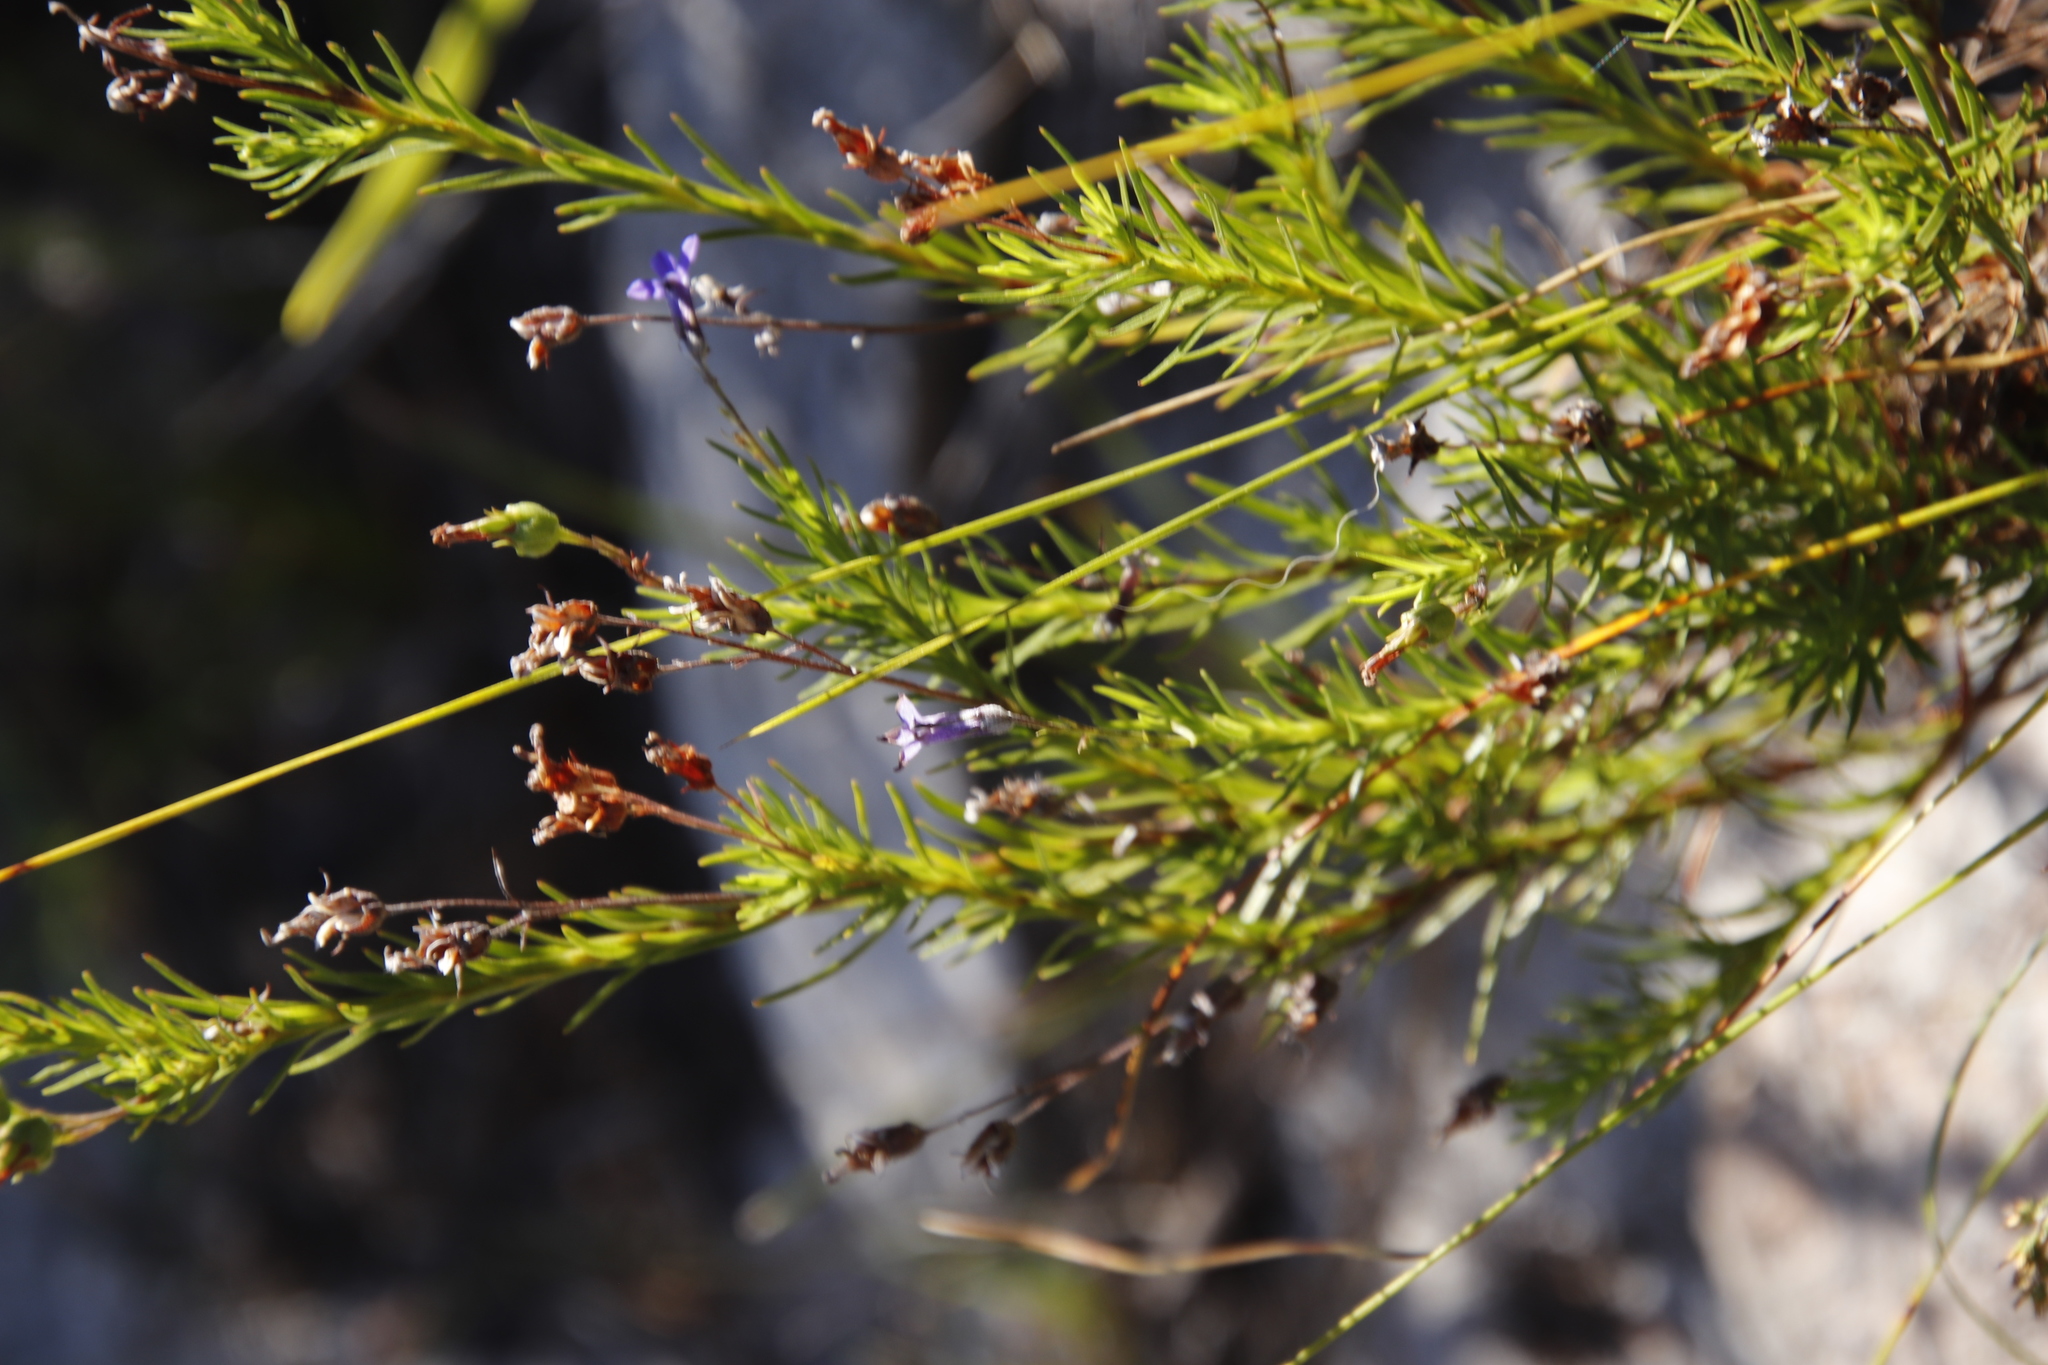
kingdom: Plantae
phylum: Tracheophyta
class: Magnoliopsida
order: Asterales
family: Campanulaceae
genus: Lobelia
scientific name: Lobelia pinifolia
